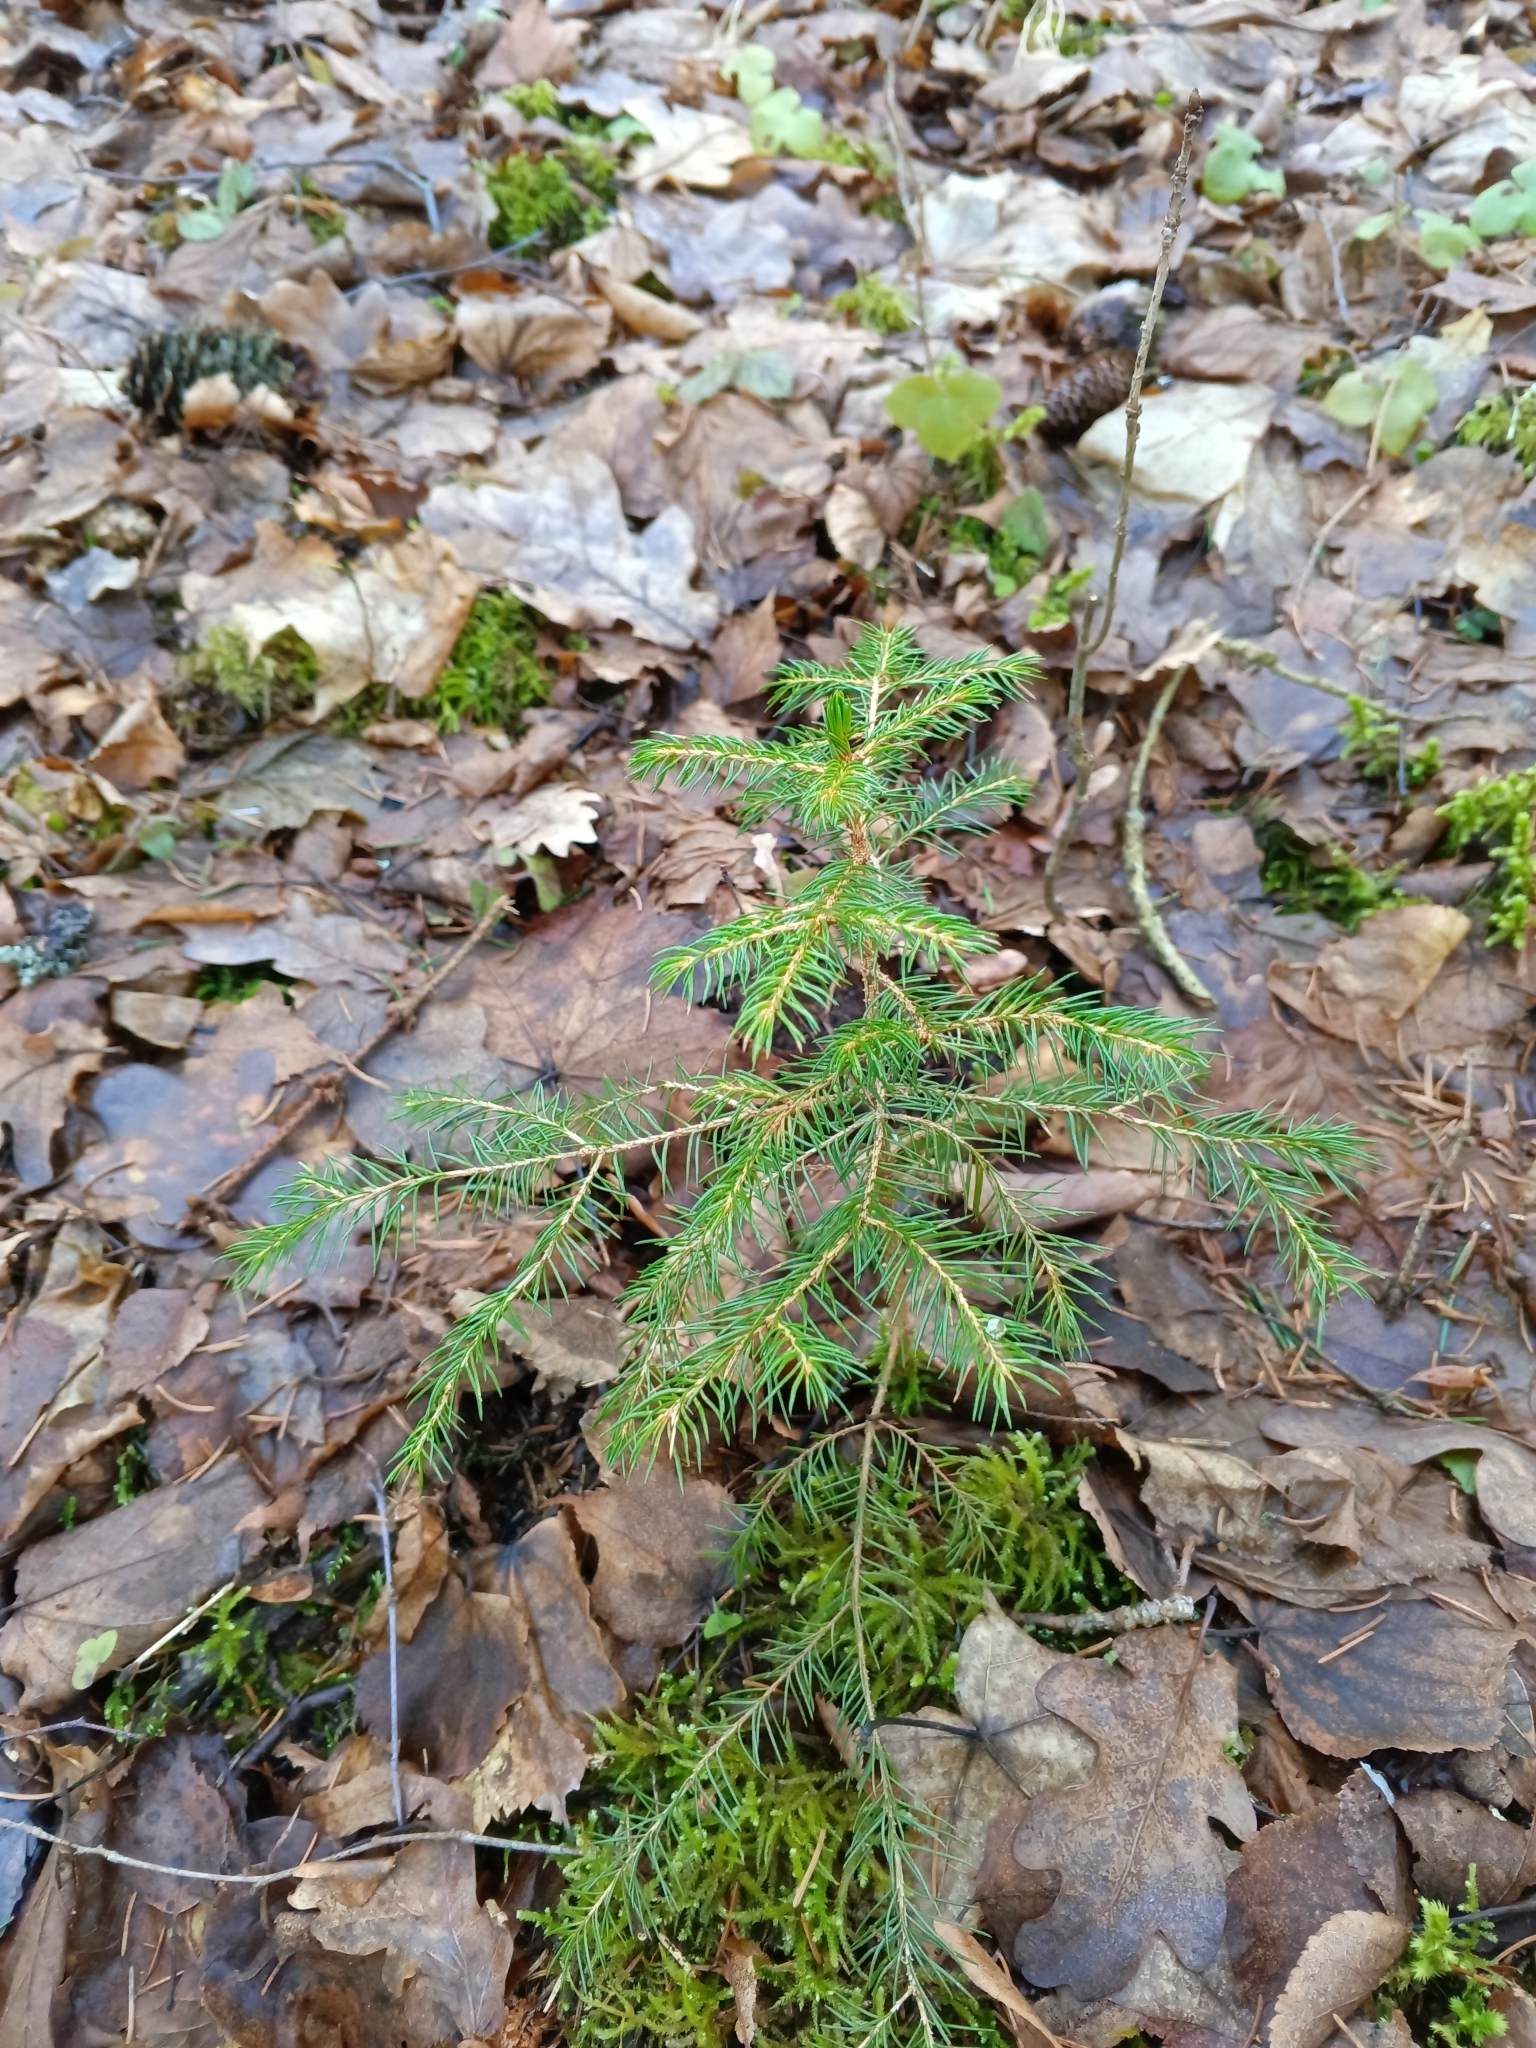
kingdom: Plantae
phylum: Tracheophyta
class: Pinopsida
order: Pinales
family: Pinaceae
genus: Picea
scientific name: Picea abies
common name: Norway spruce
